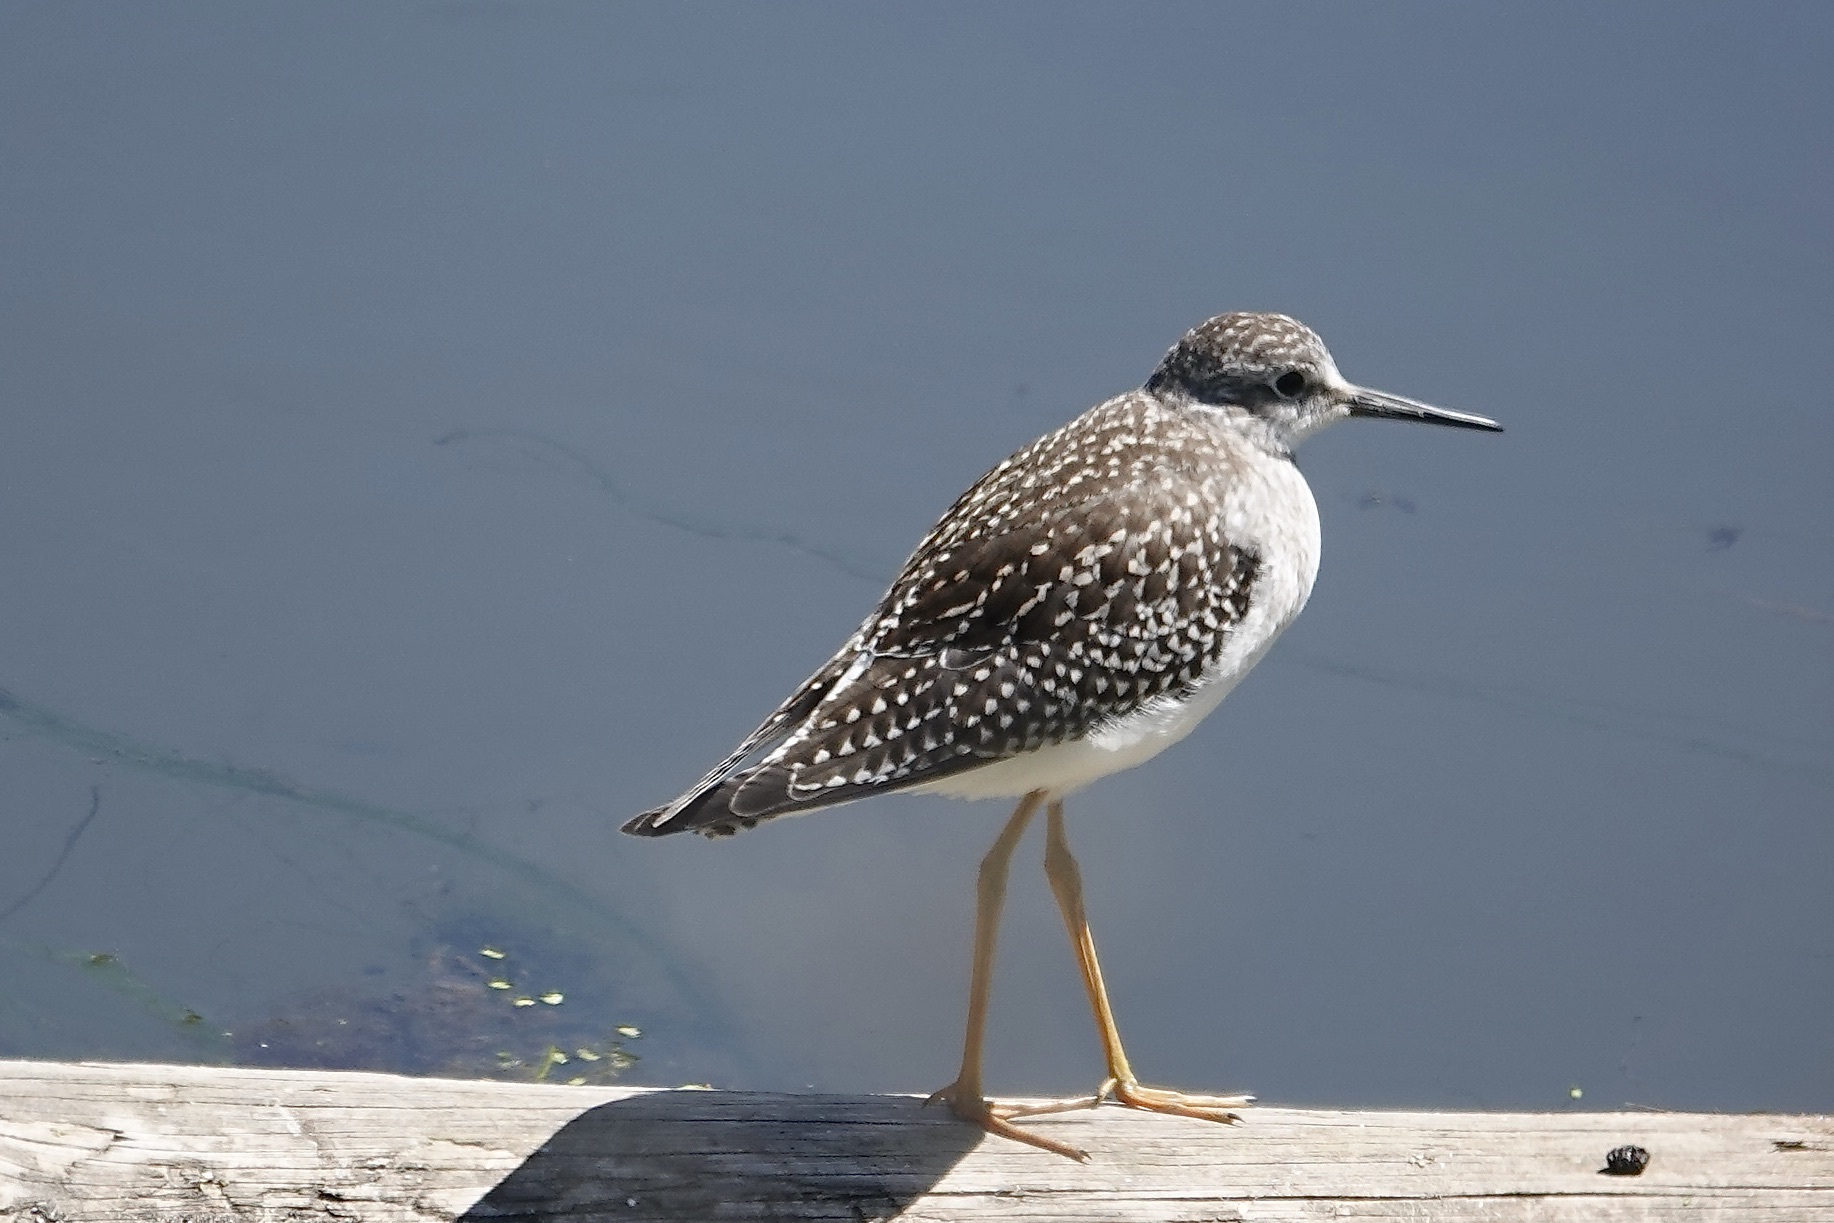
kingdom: Animalia
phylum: Chordata
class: Aves
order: Charadriiformes
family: Scolopacidae
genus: Tringa
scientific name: Tringa flavipes
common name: Lesser yellowlegs
